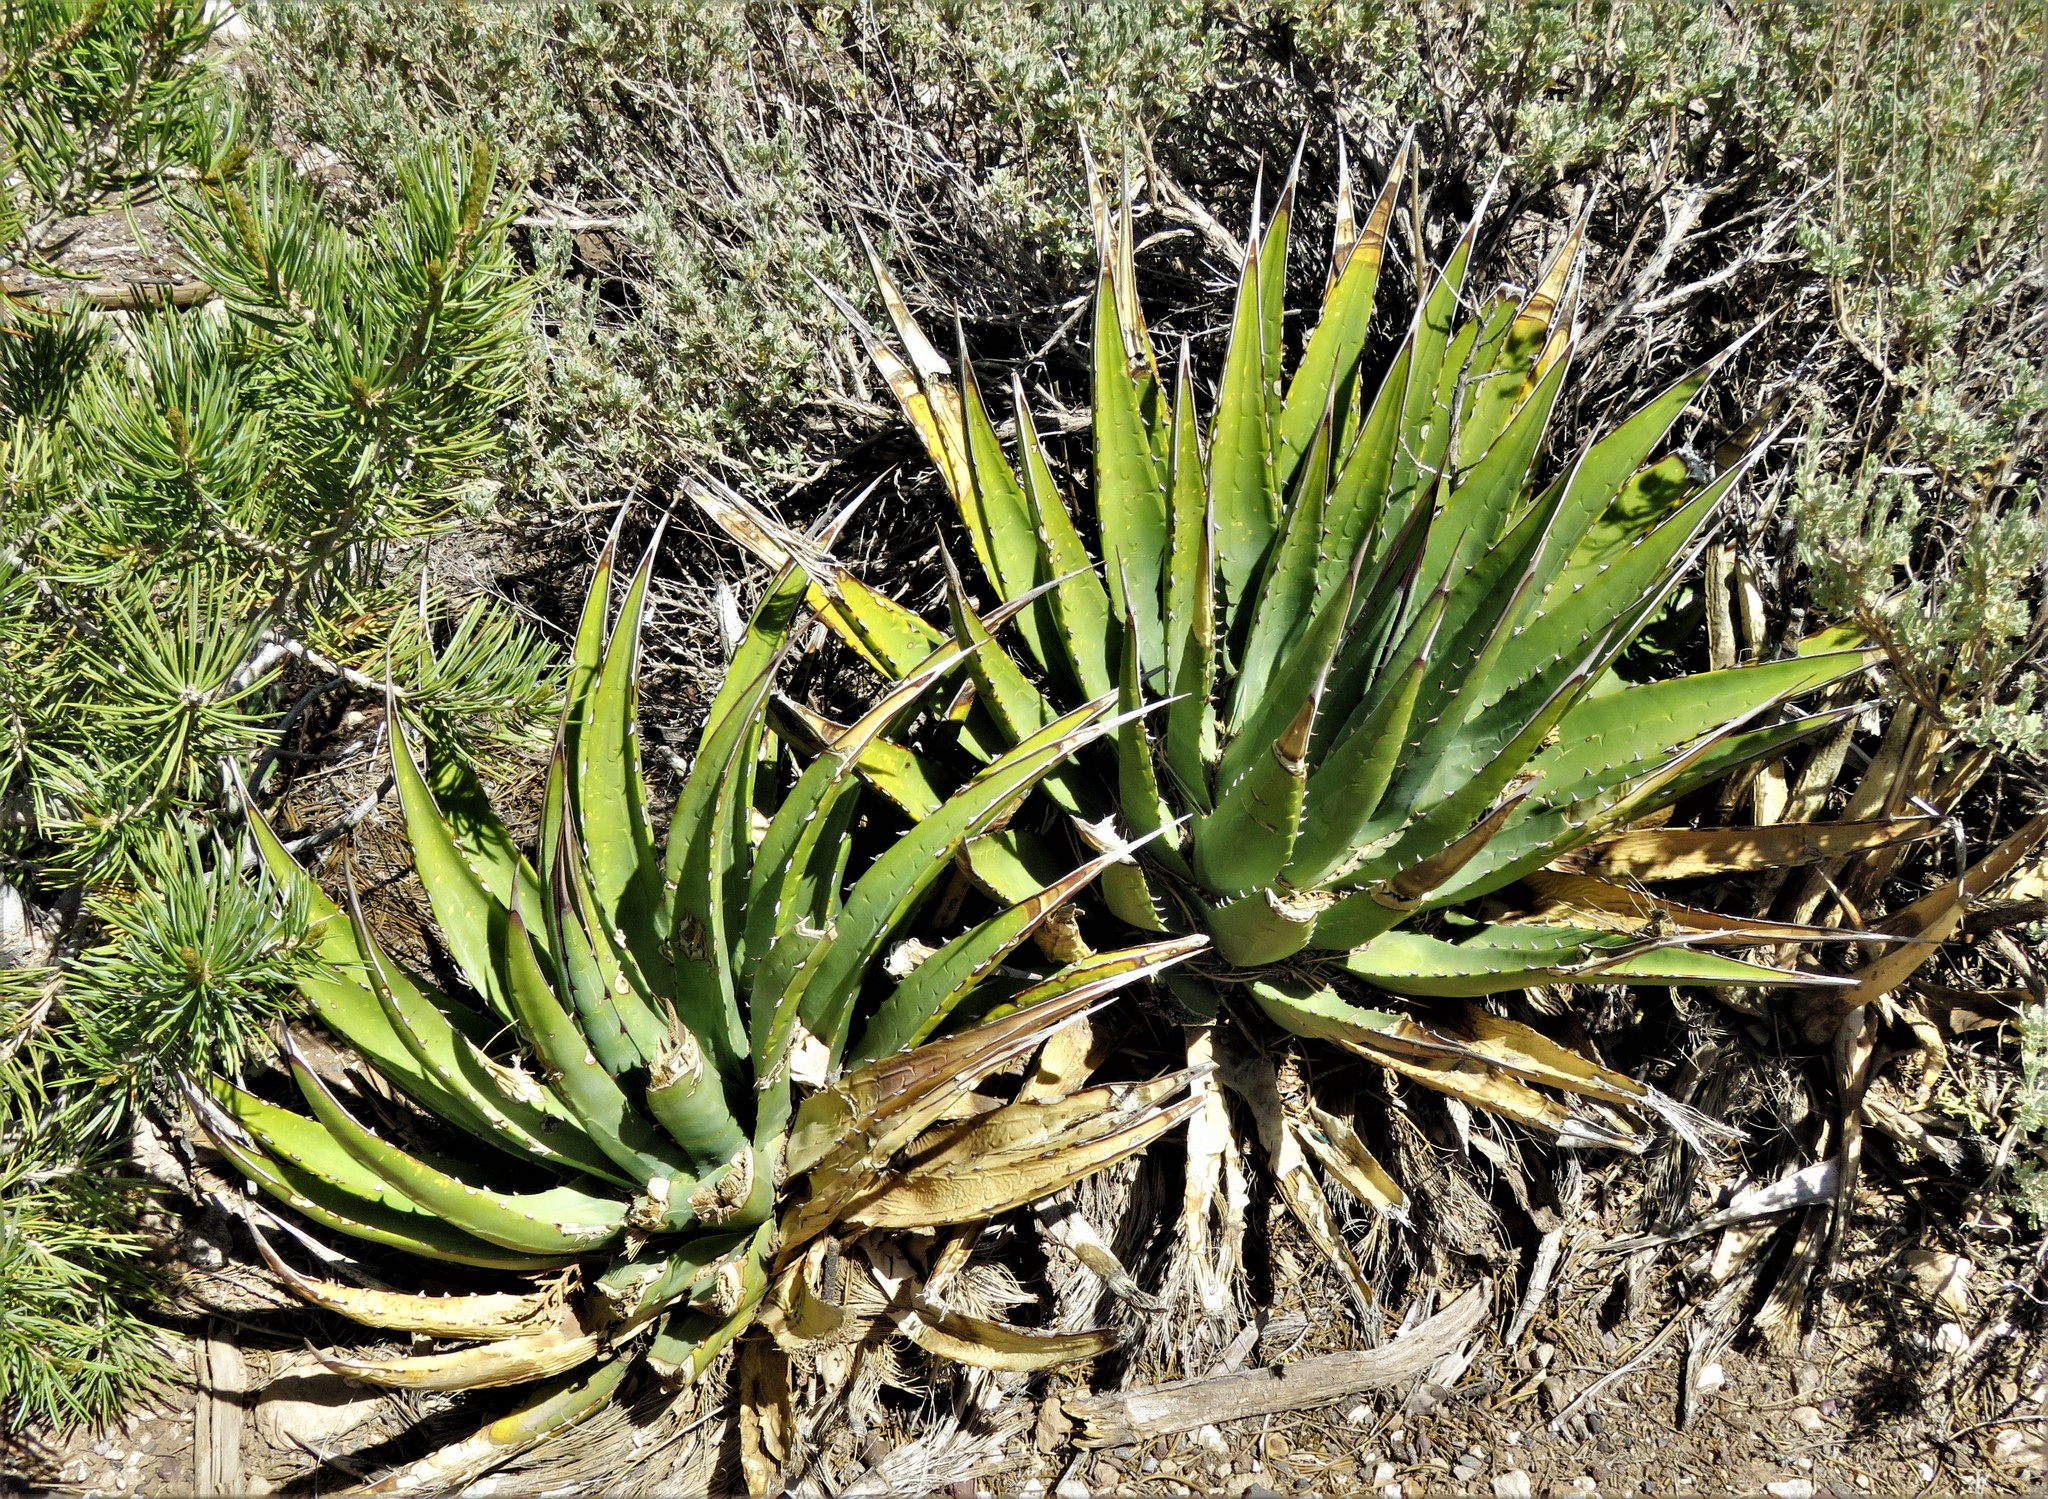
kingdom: Plantae
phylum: Tracheophyta
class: Liliopsida
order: Asparagales
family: Asparagaceae
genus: Agave
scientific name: Agave utahensis
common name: Utah agave
